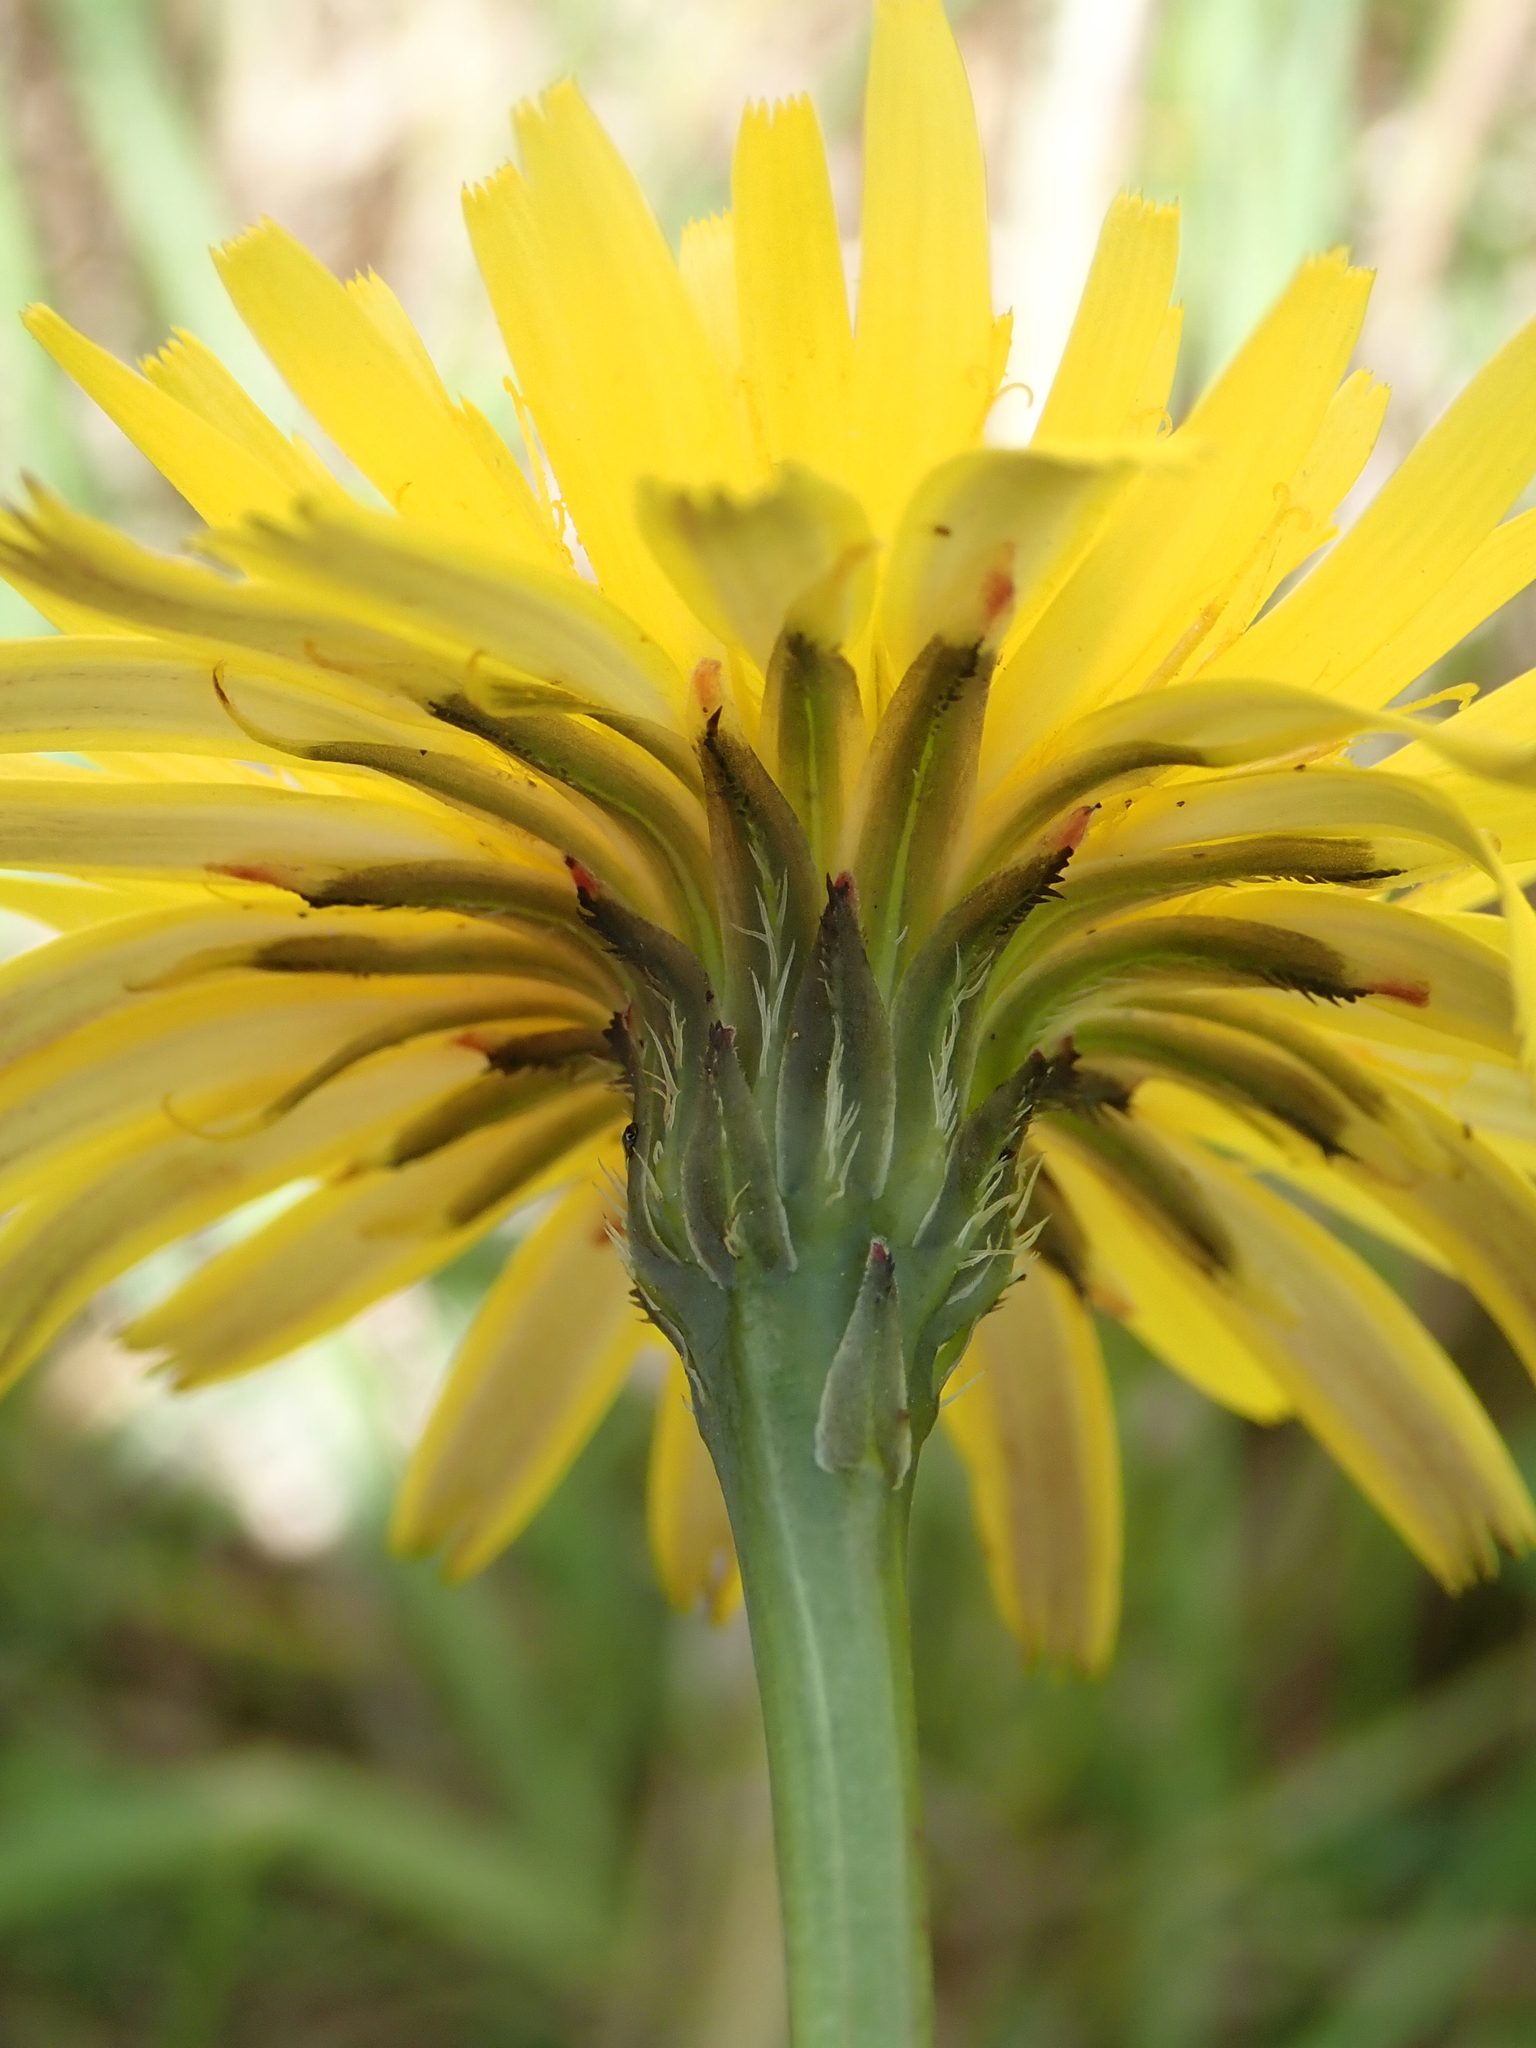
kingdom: Plantae
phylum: Tracheophyta
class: Magnoliopsida
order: Asterales
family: Asteraceae
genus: Hypochaeris
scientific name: Hypochaeris radicata
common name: Flatweed
